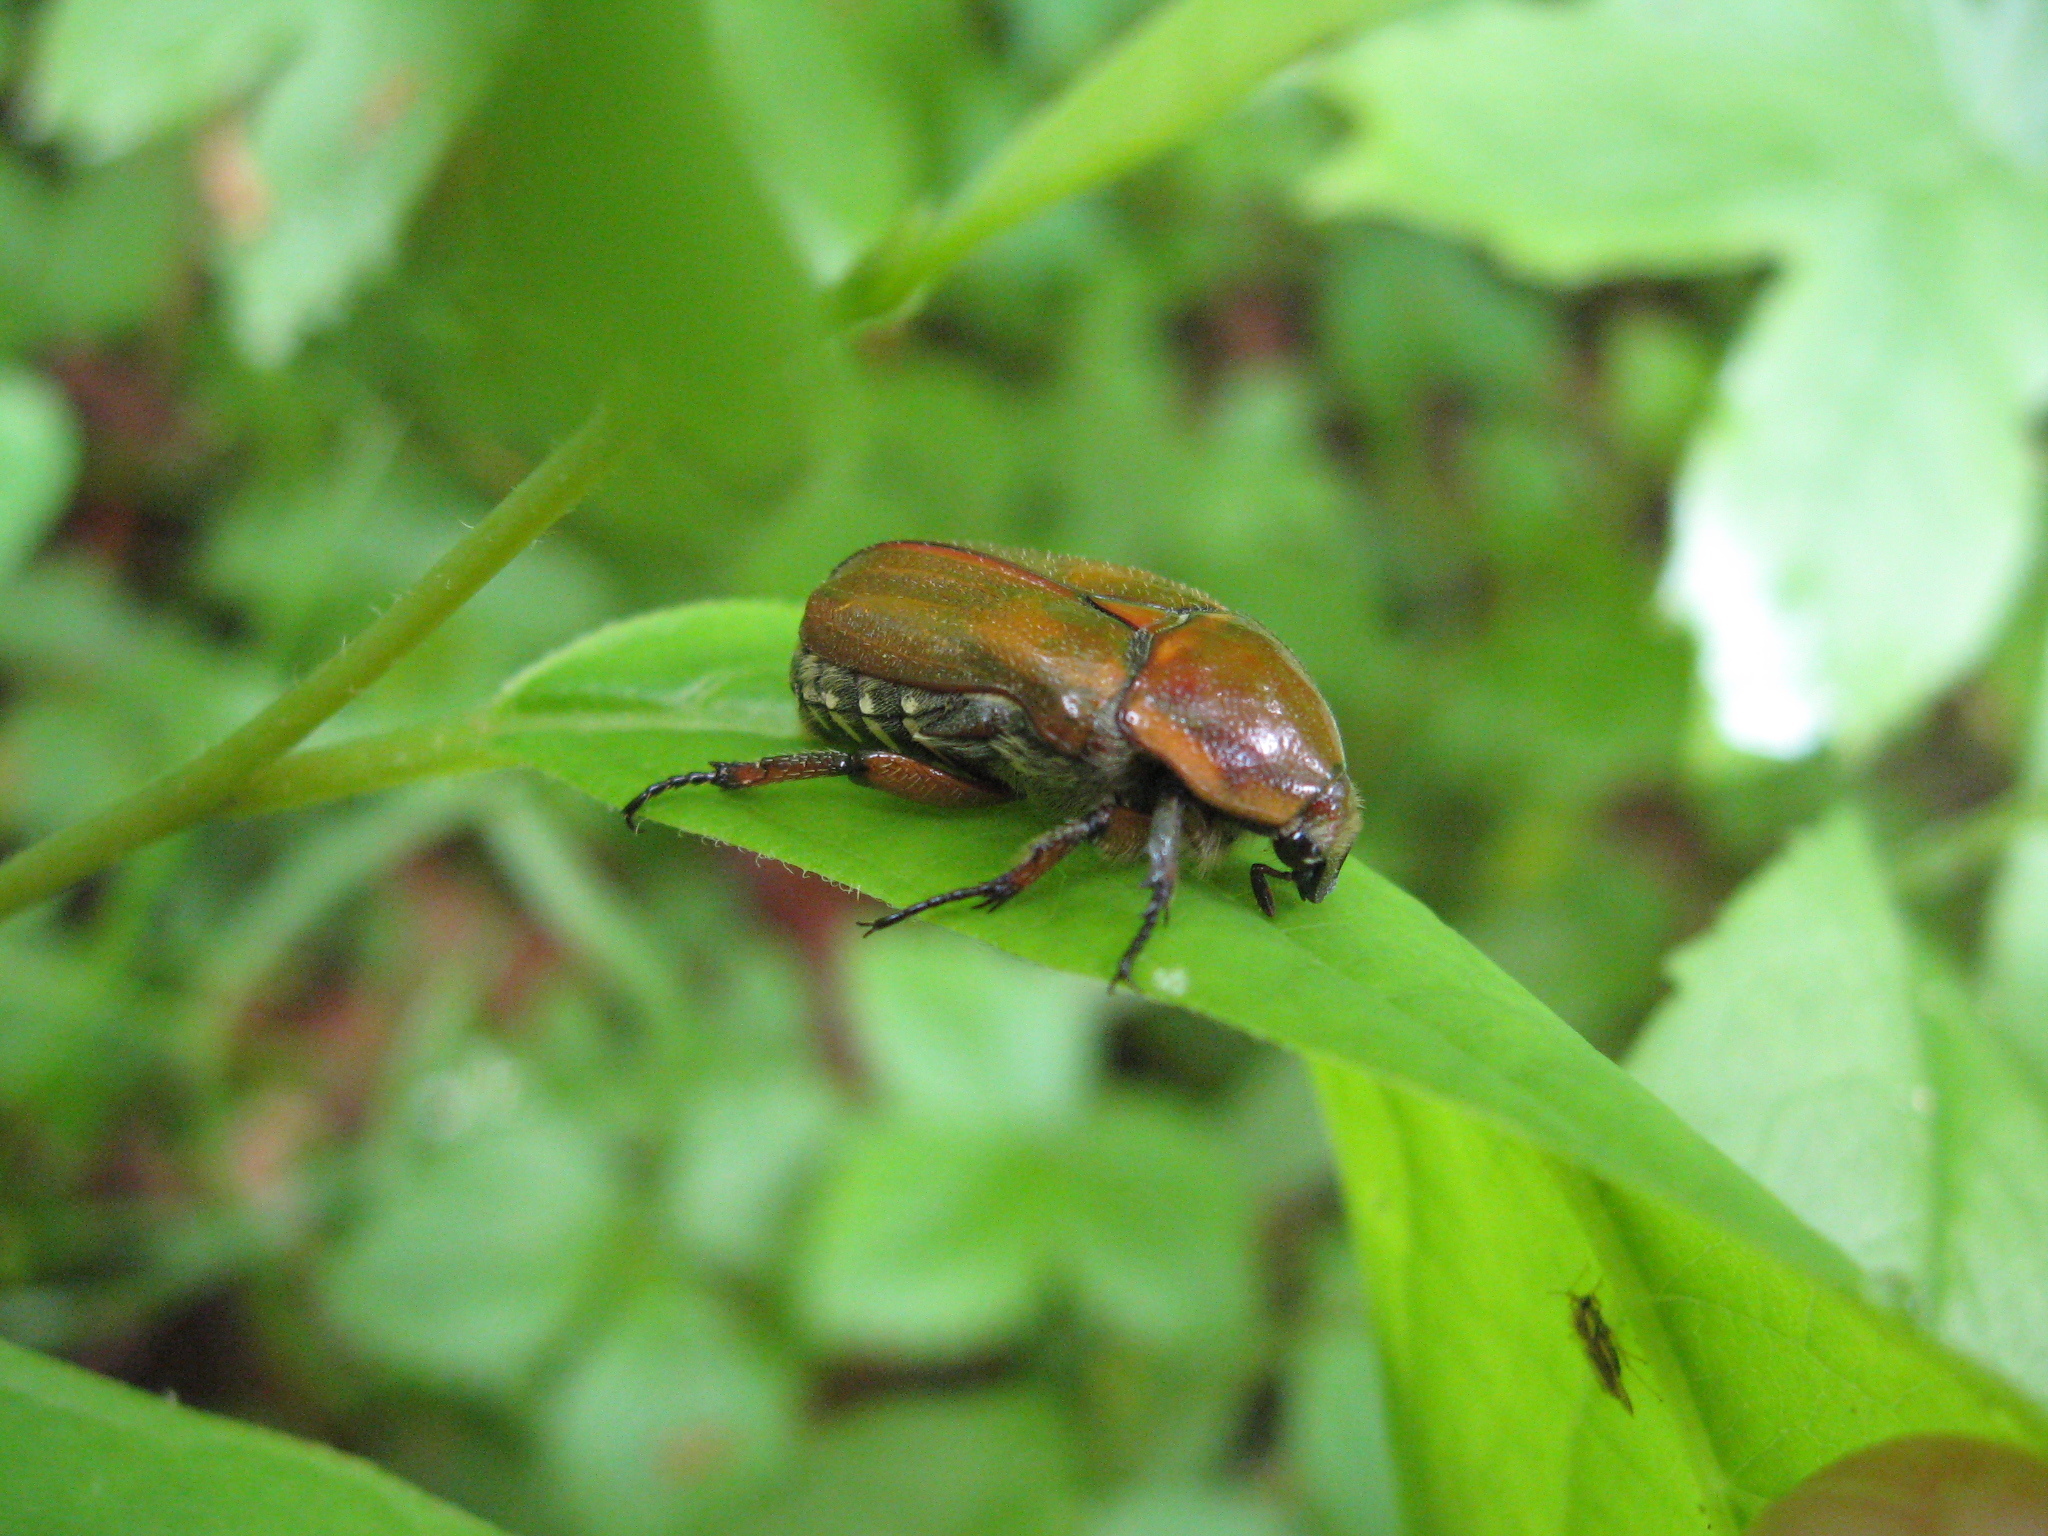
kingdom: Animalia
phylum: Arthropoda
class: Insecta
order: Coleoptera
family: Scarabaeidae
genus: Euphoria
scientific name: Euphoria fulgida
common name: Emerald euphoria
